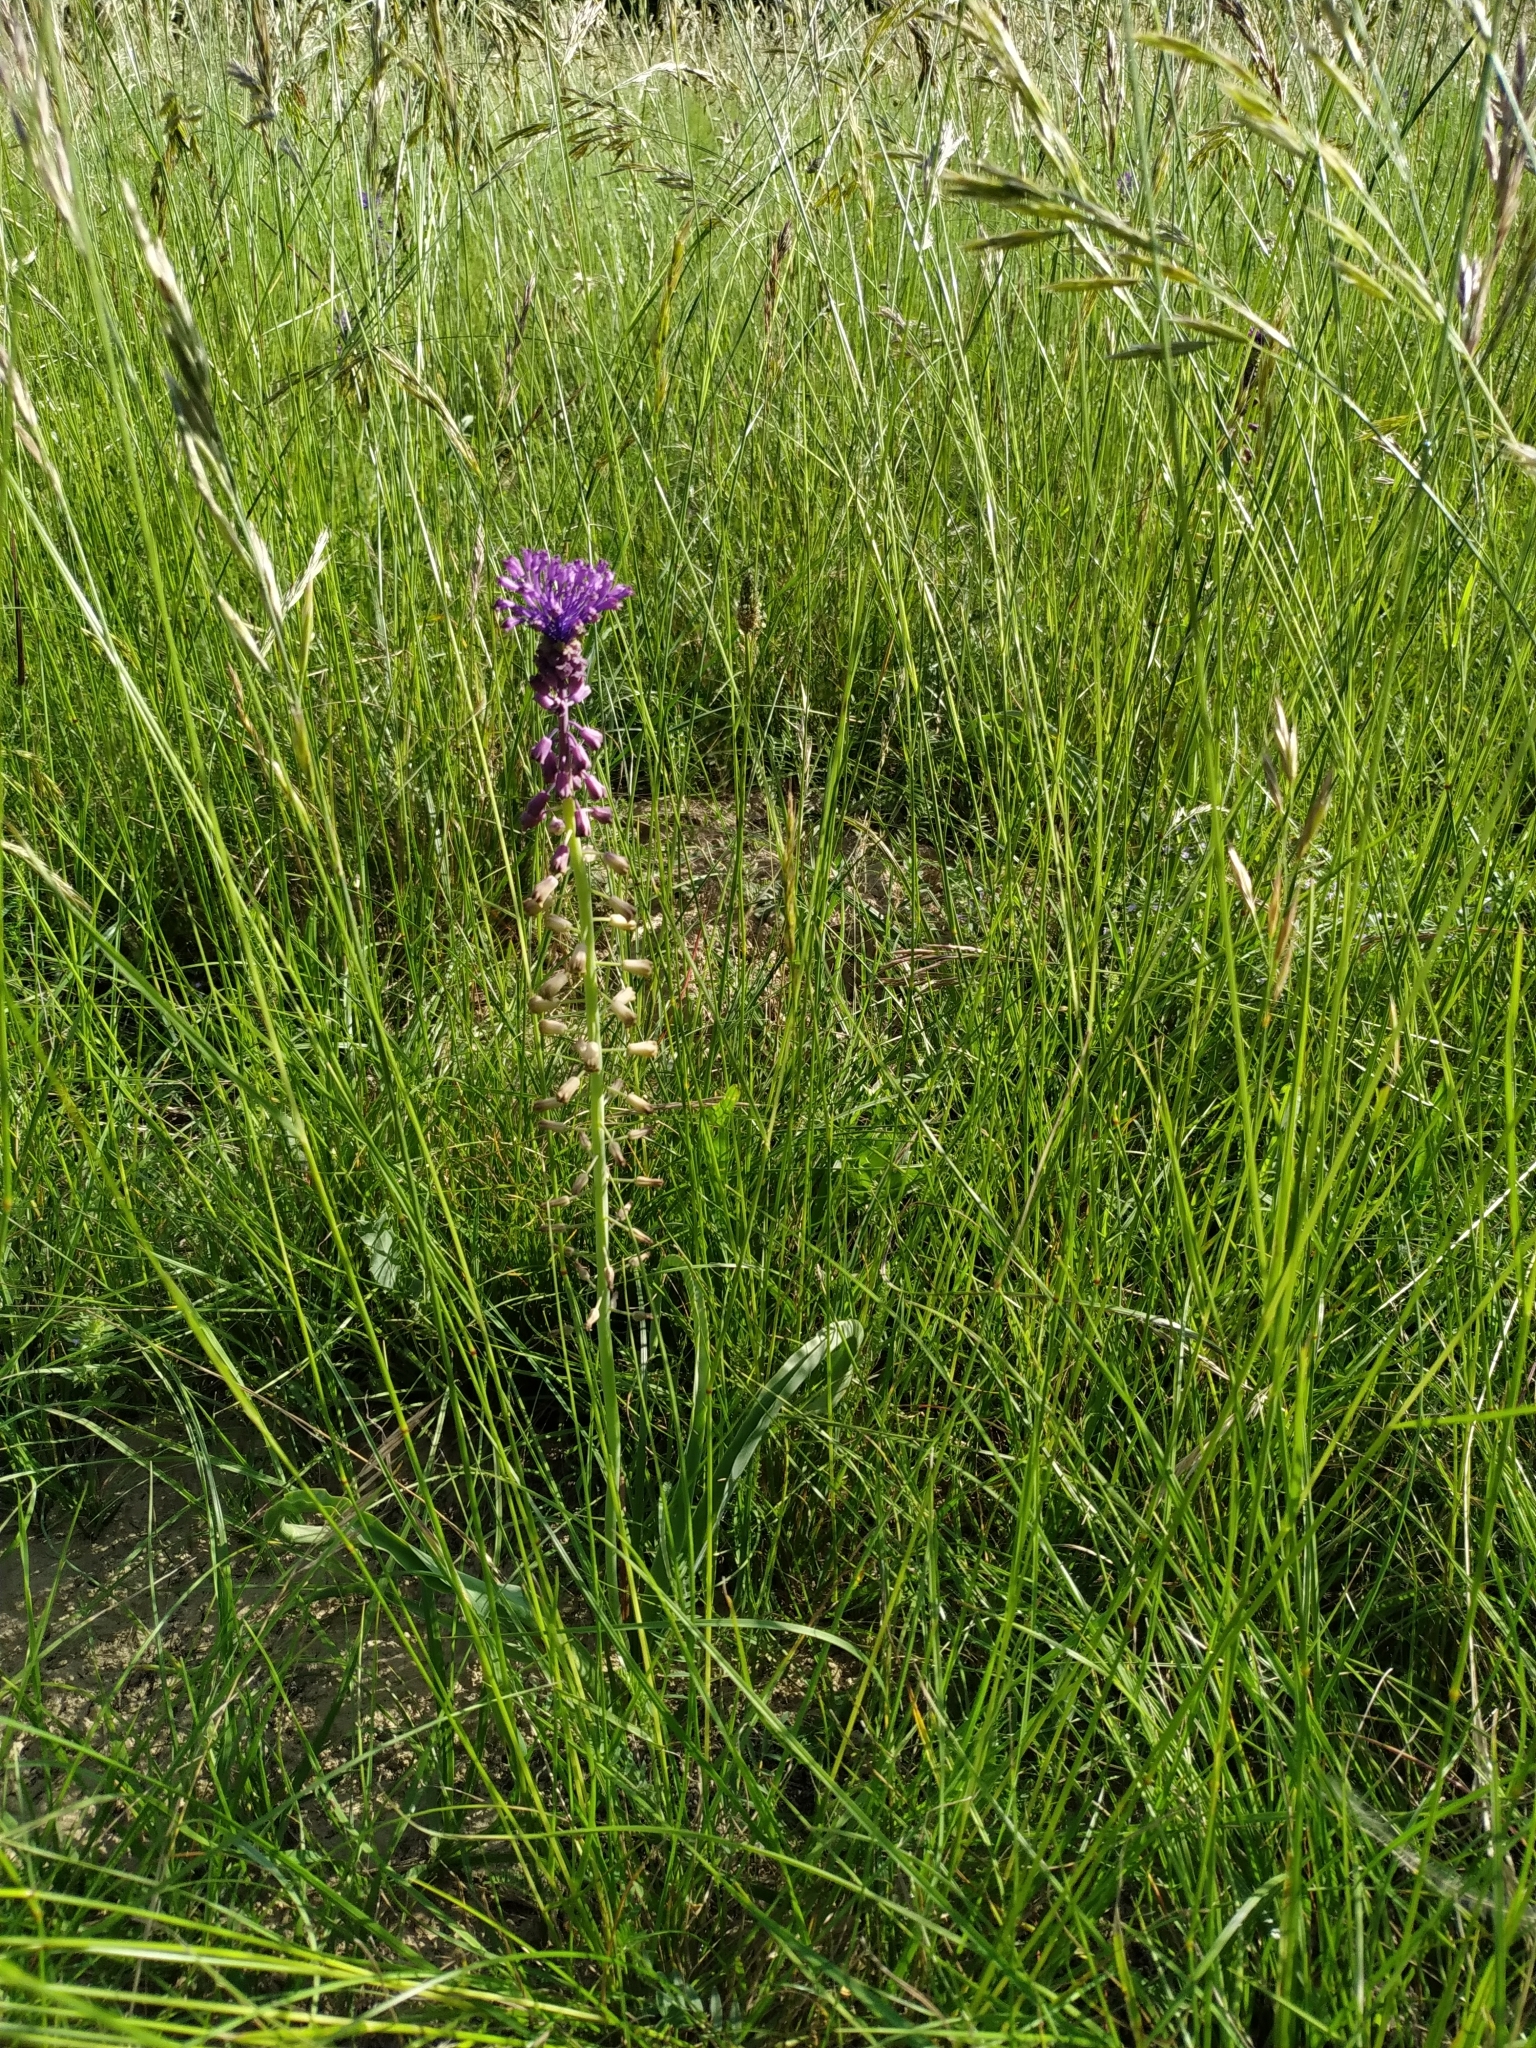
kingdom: Plantae
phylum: Tracheophyta
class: Liliopsida
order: Asparagales
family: Asparagaceae
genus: Muscari
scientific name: Muscari comosum
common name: Tassel hyacinth
